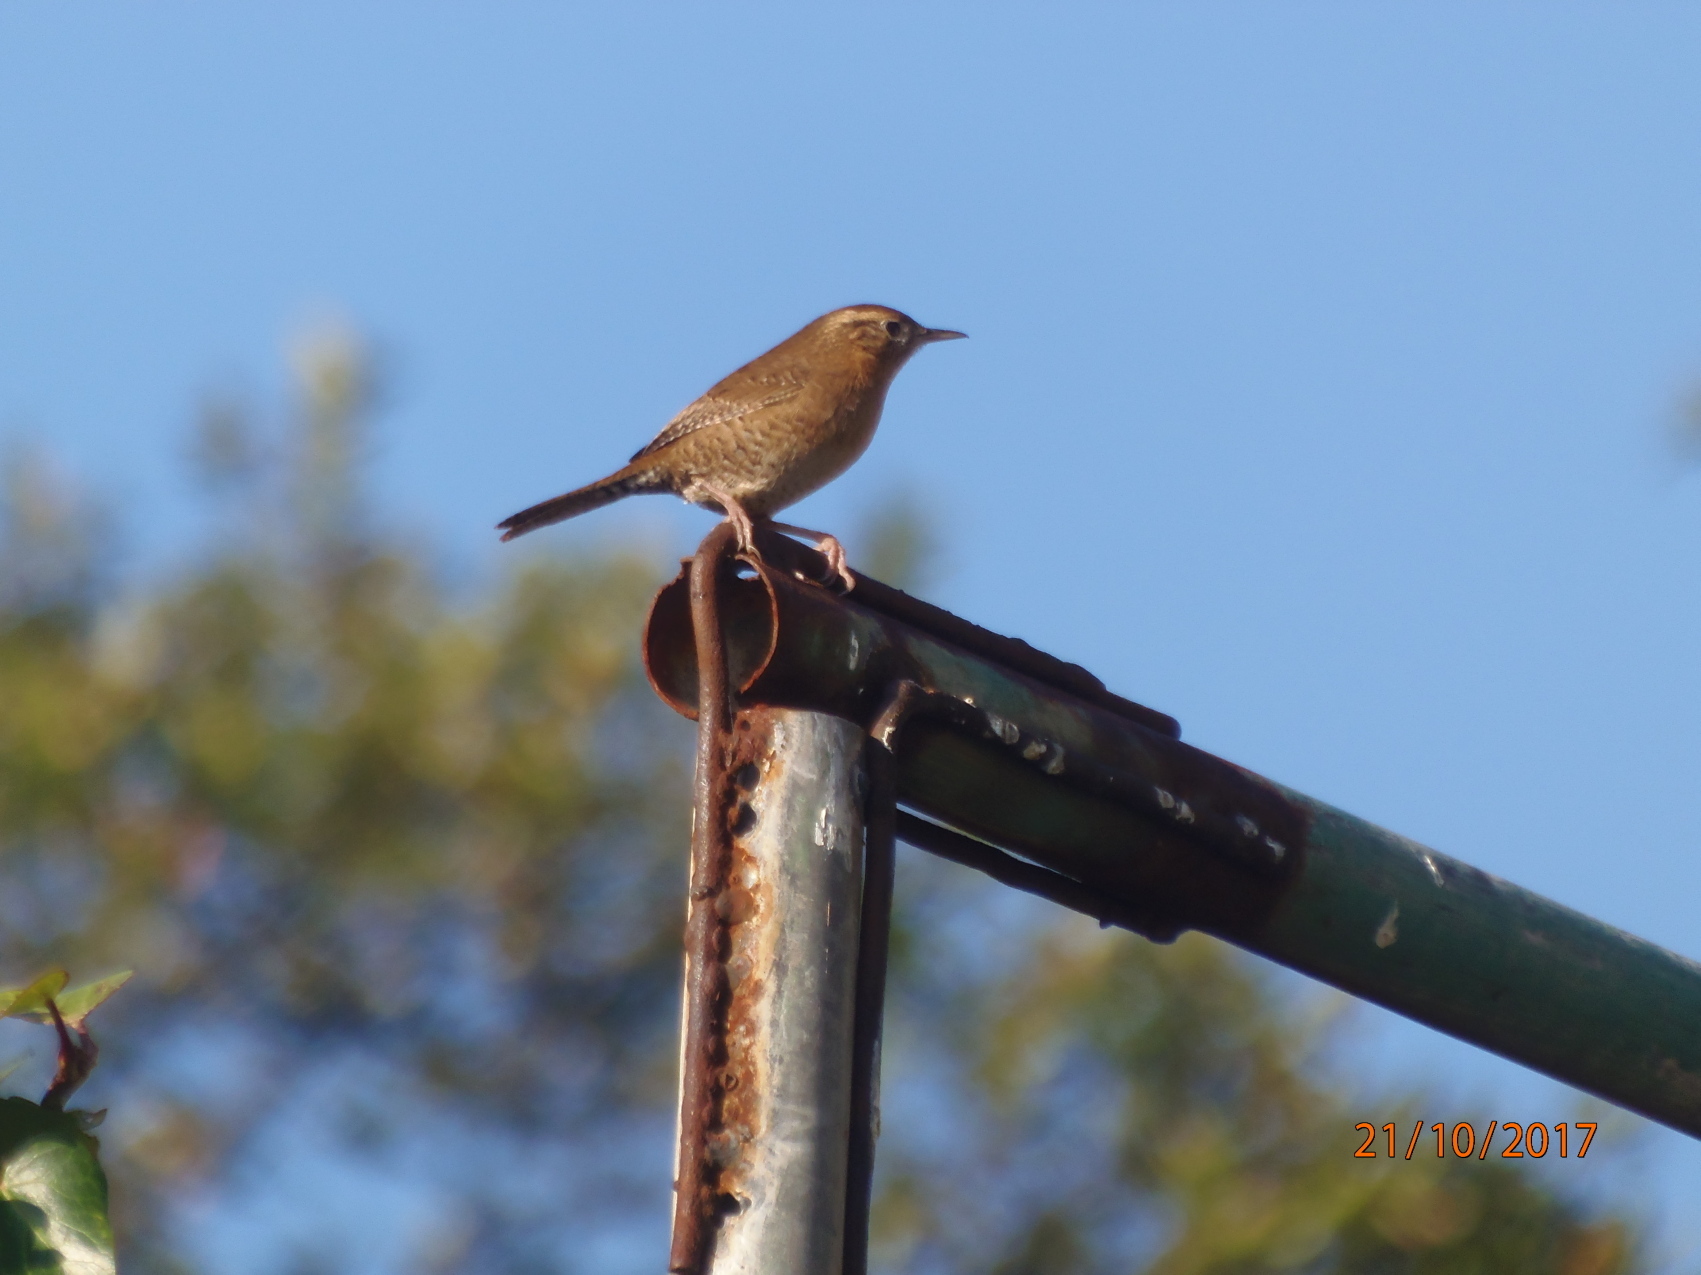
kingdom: Animalia
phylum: Chordata
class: Aves
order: Passeriformes
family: Troglodytidae
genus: Troglodytes
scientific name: Troglodytes aedon
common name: House wren
